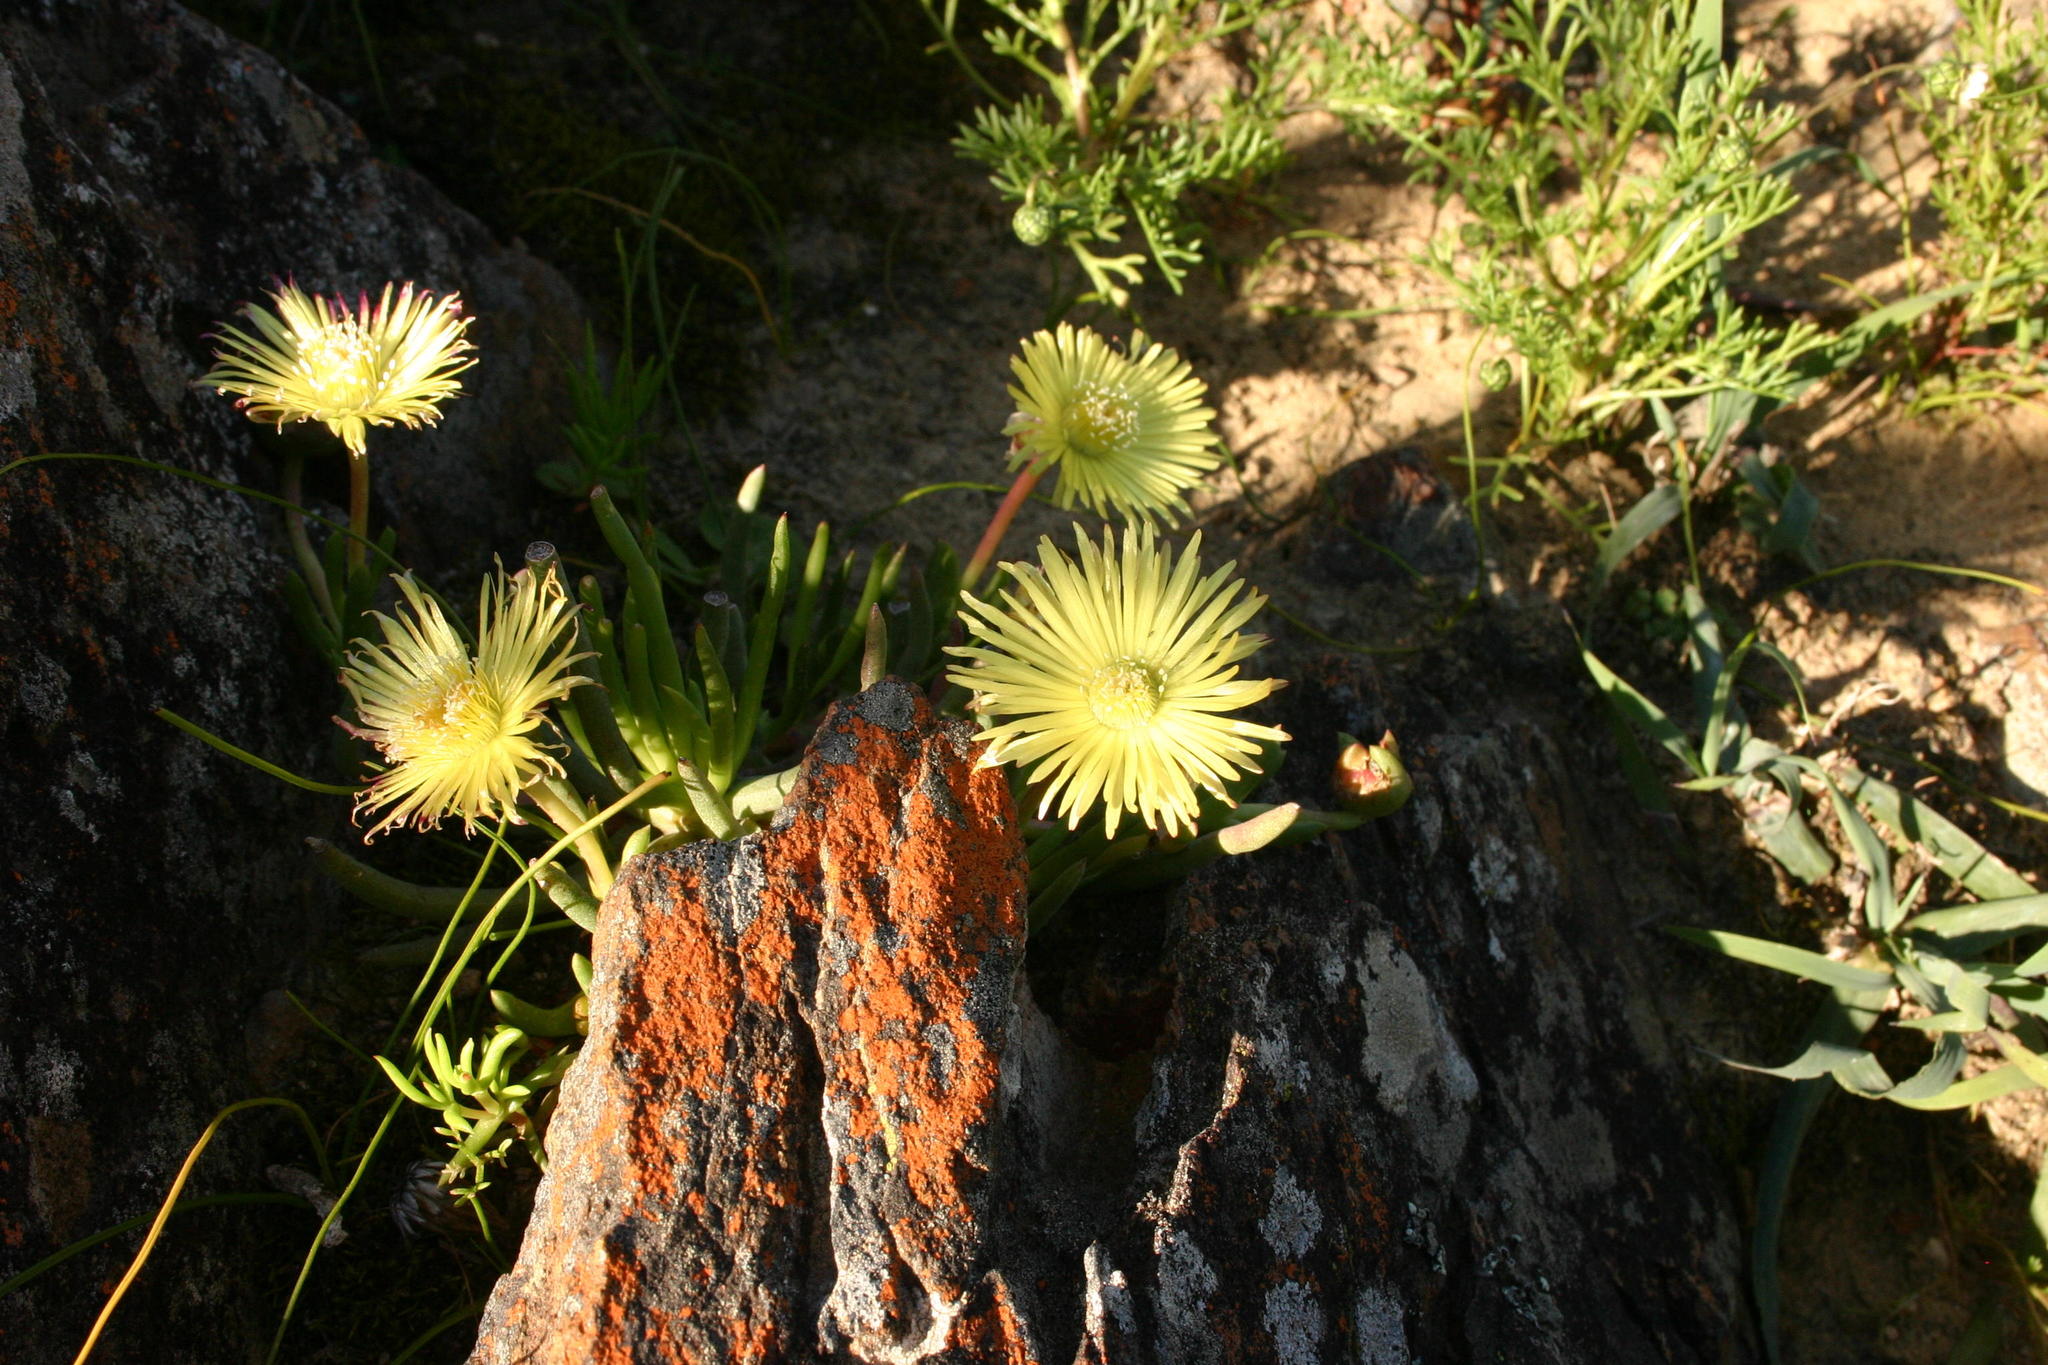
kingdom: Plantae
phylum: Tracheophyta
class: Magnoliopsida
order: Caryophyllales
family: Aizoaceae
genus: Cephalophyllum
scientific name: Cephalophyllum purpureoalbum
